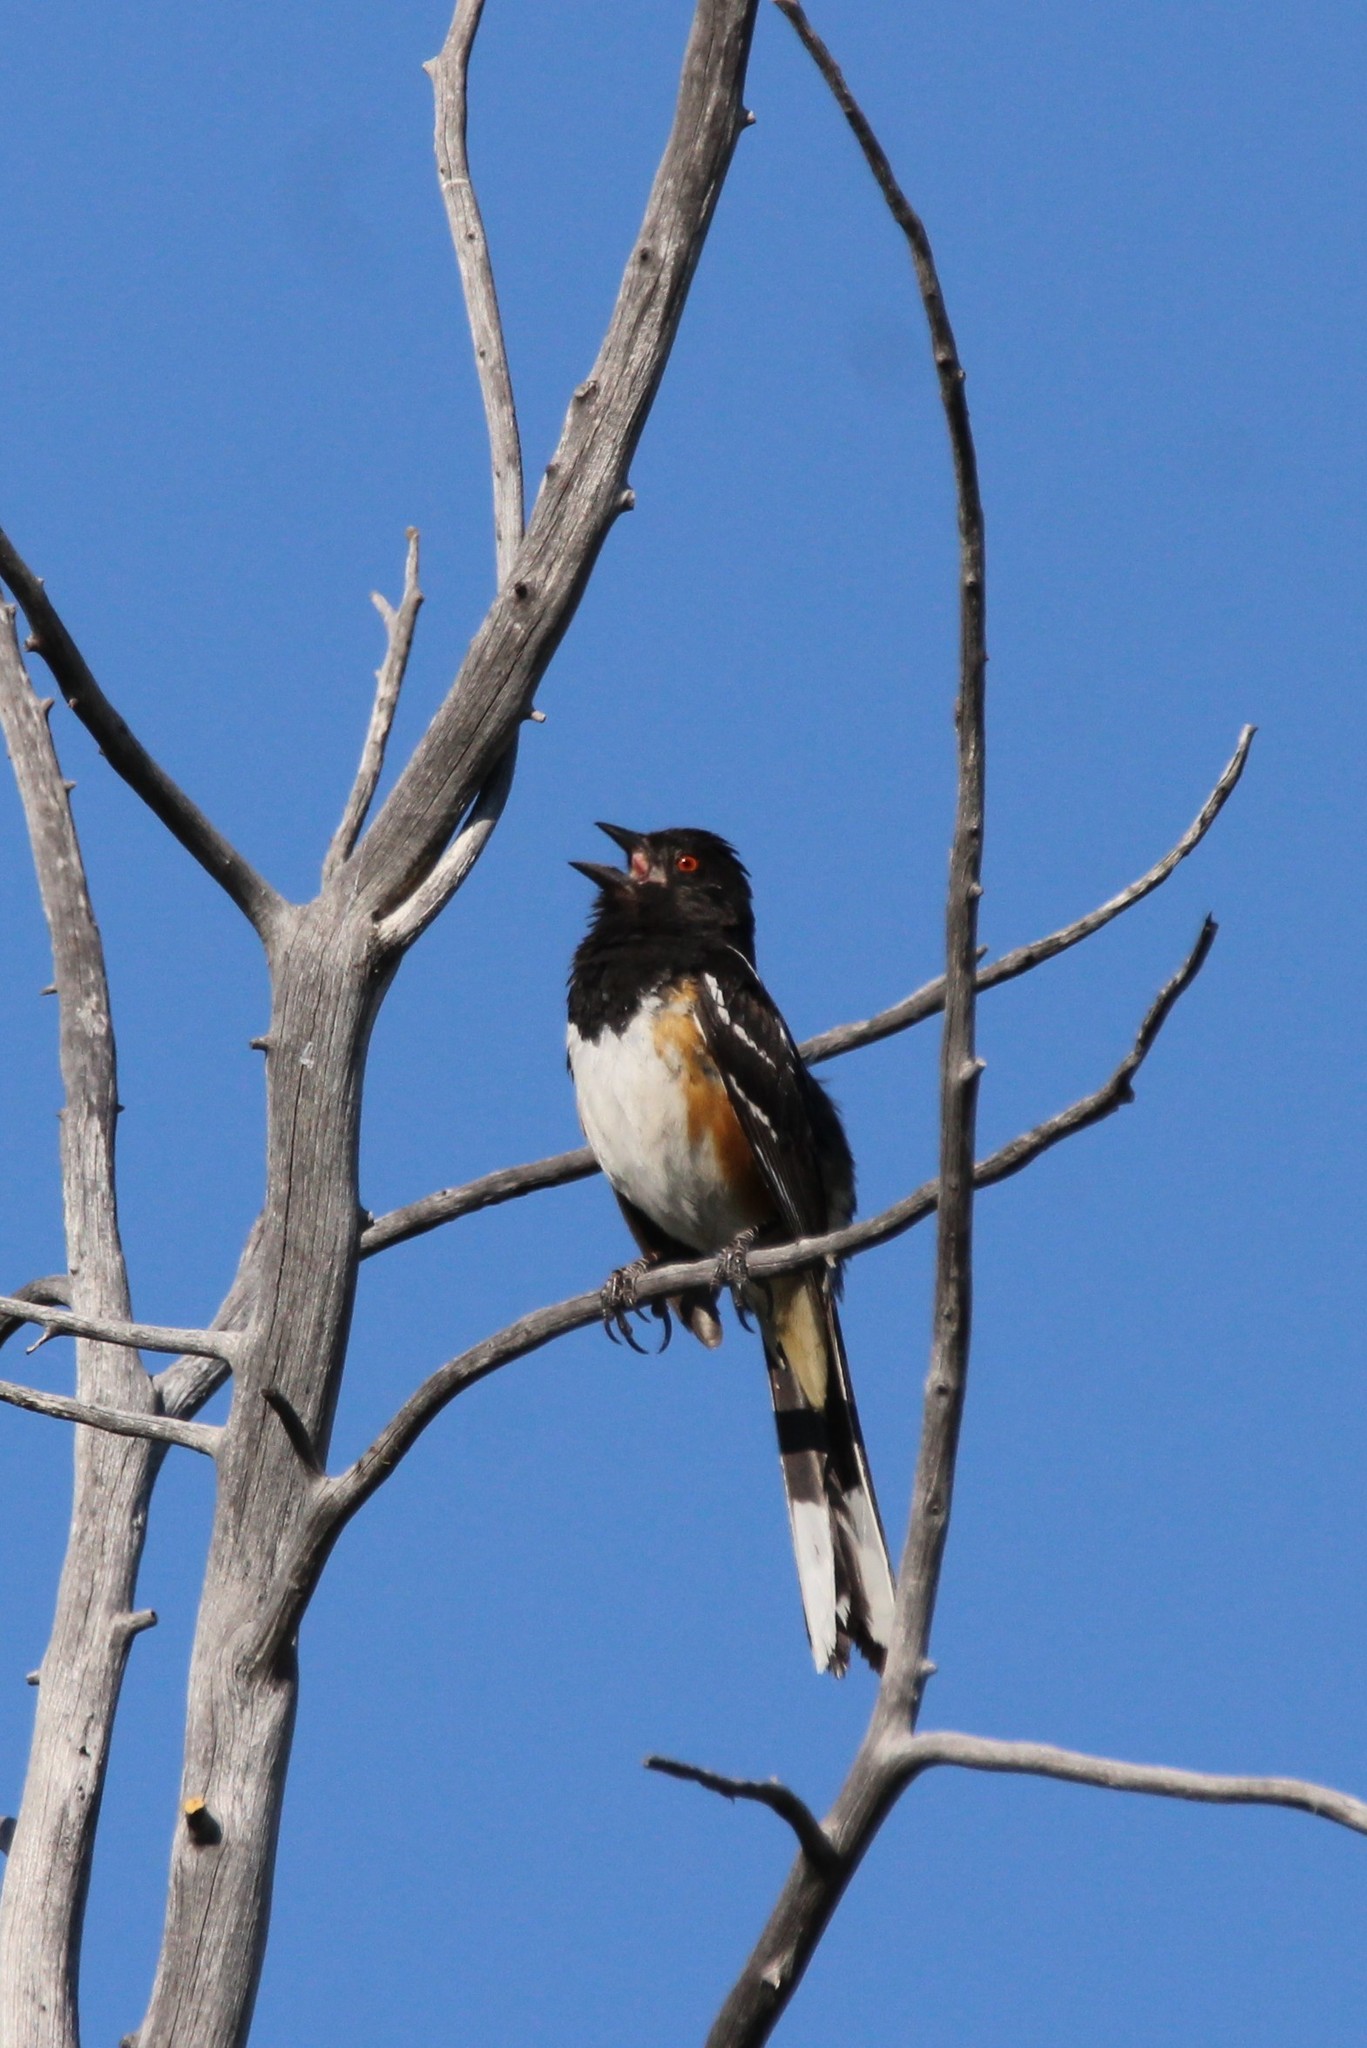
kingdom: Animalia
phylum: Chordata
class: Aves
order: Passeriformes
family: Passerellidae
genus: Pipilo
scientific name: Pipilo maculatus
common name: Spotted towhee
